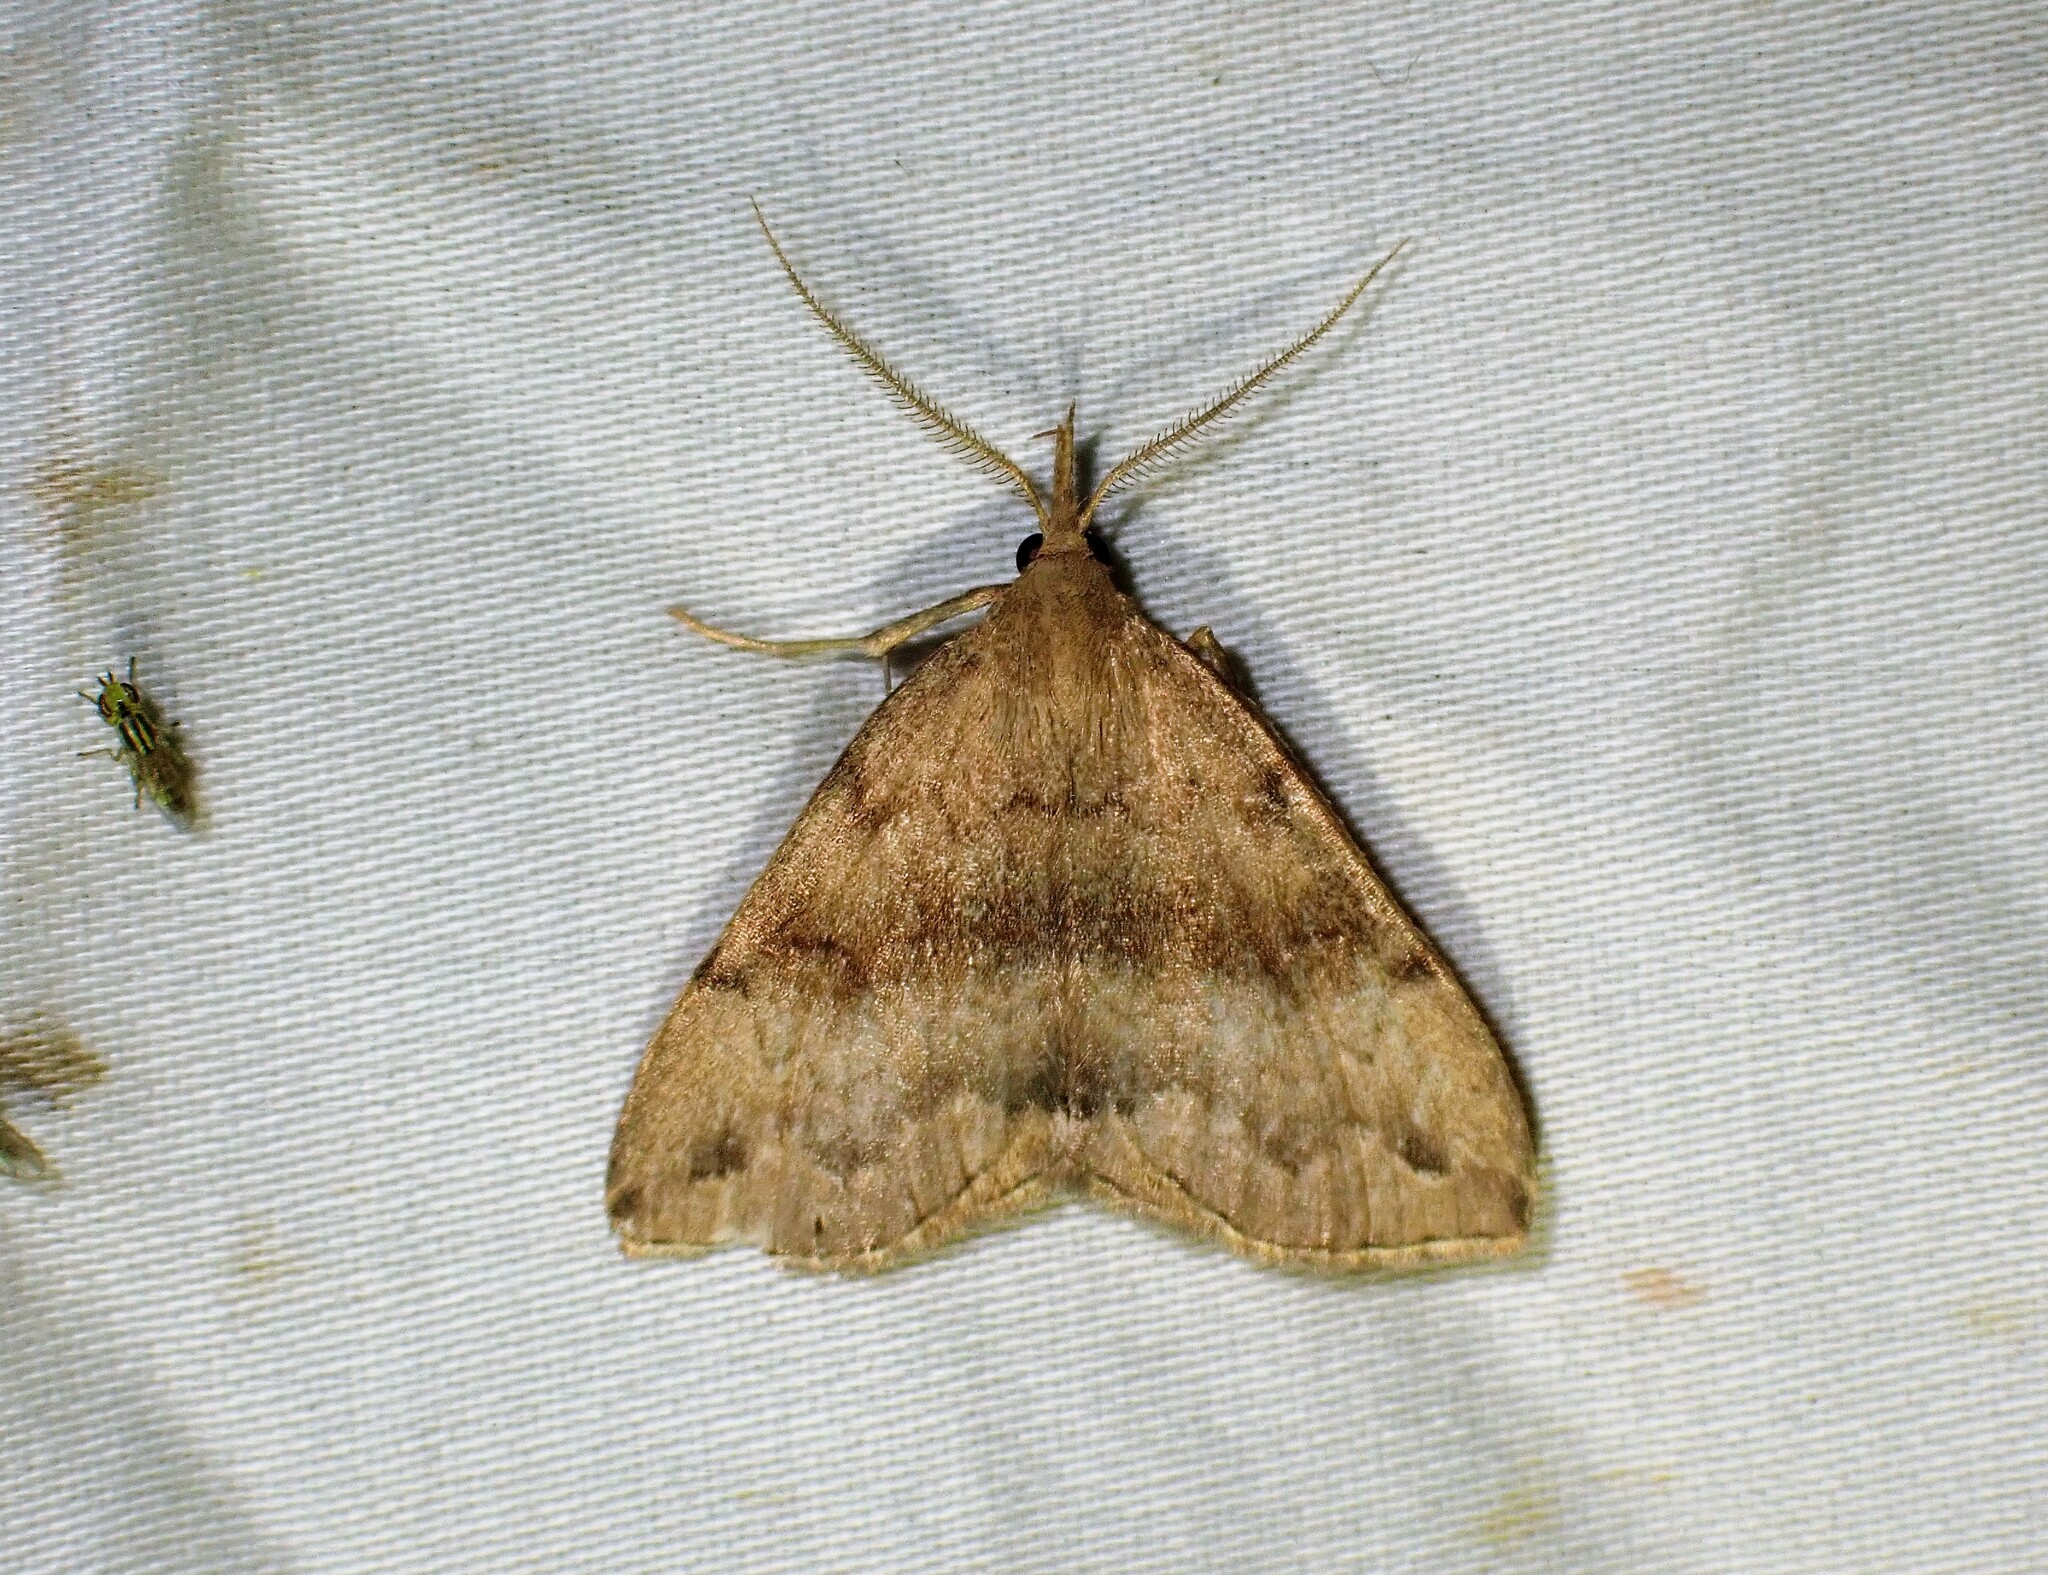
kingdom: Animalia
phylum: Arthropoda
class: Insecta
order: Lepidoptera
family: Erebidae
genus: Phalaenostola
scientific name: Phalaenostola eumelusalis
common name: Dark phalaenostola moth
